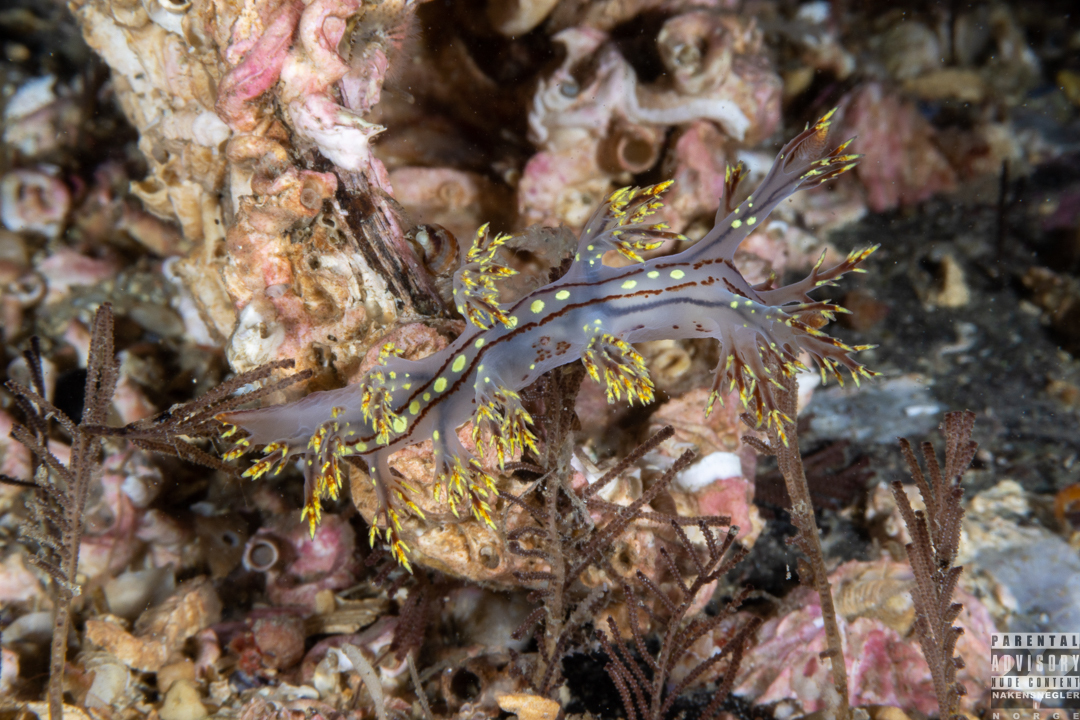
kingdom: Animalia
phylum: Mollusca
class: Gastropoda
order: Nudibranchia
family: Dendronotidae
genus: Dendronotus
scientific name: Dendronotus yrjargul
